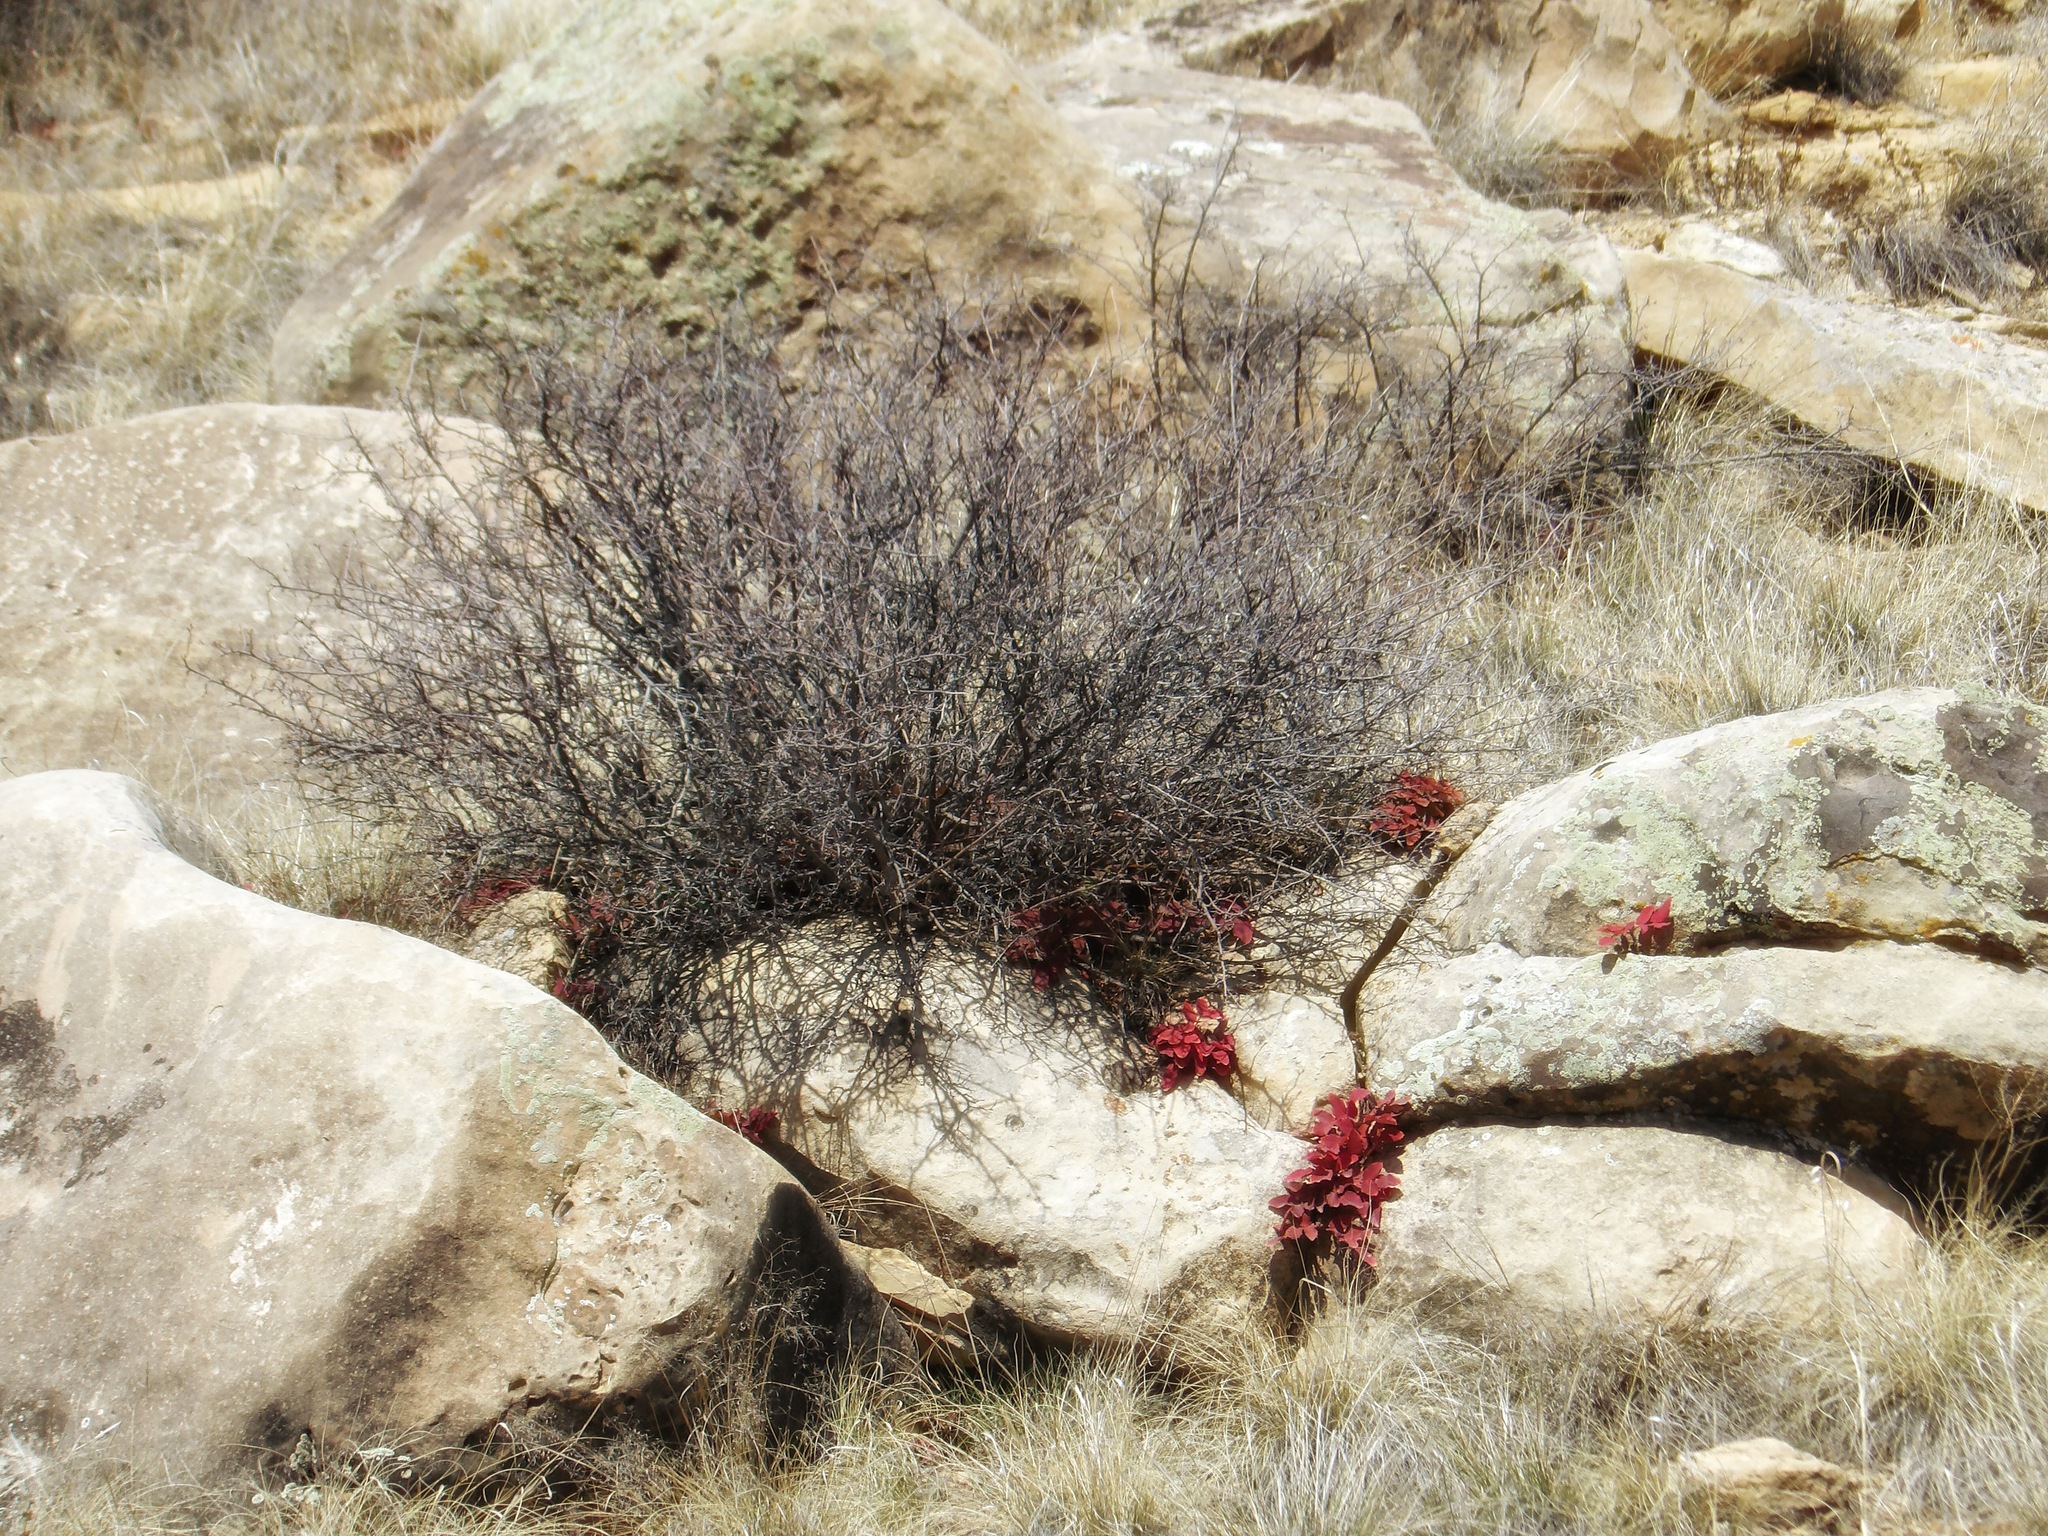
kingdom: Plantae
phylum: Tracheophyta
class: Magnoliopsida
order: Ranunculales
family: Berberidaceae
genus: Mahonia
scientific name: Mahonia repens
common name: Creeping oregon-grape
